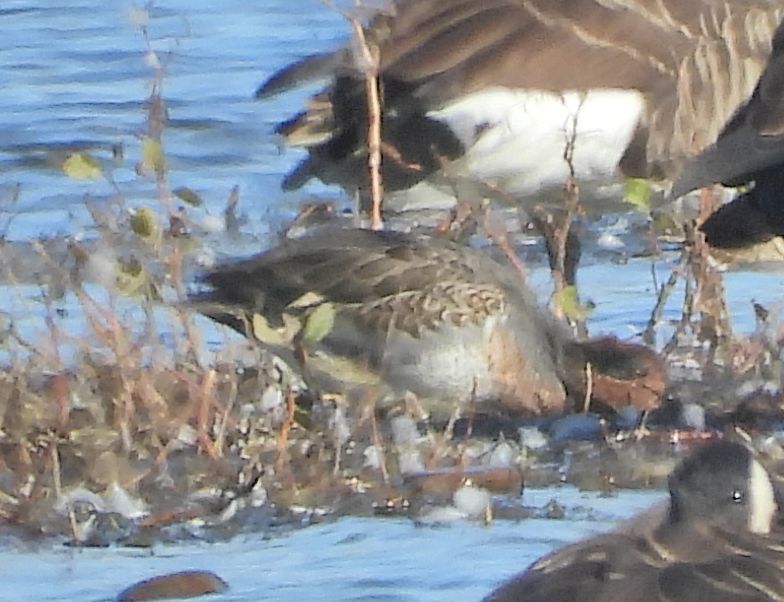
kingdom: Animalia
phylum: Chordata
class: Aves
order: Anseriformes
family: Anatidae
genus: Anas
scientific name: Anas crecca
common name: Eurasian teal
